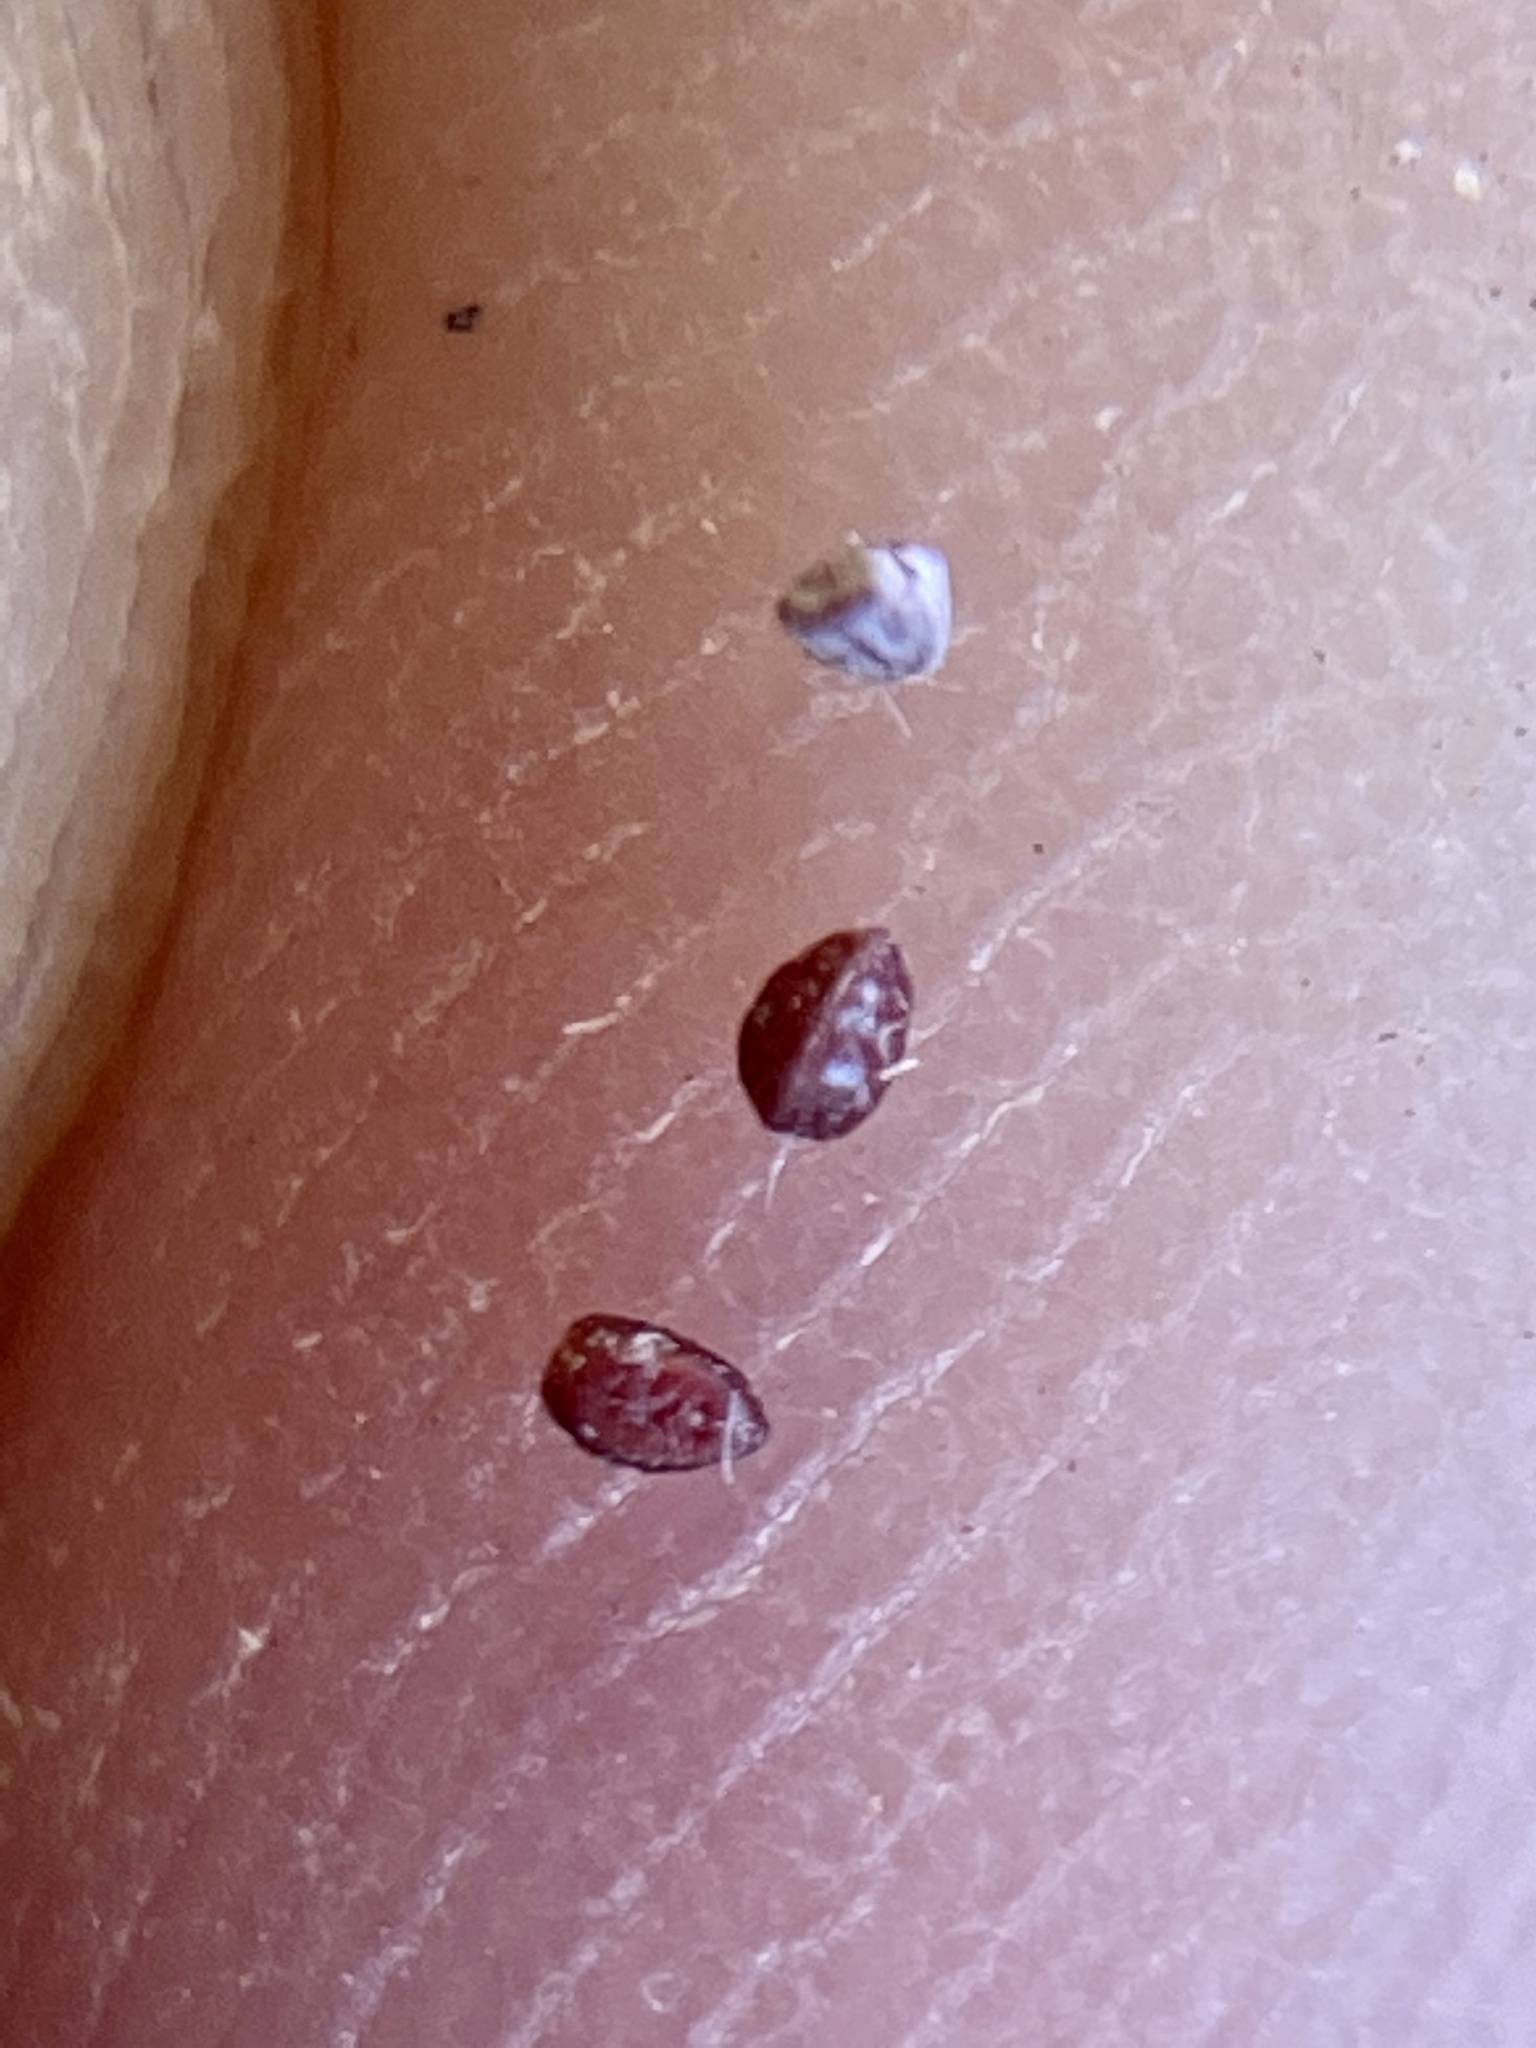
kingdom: Plantae
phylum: Tracheophyta
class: Magnoliopsida
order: Malpighiales
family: Euphorbiaceae
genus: Euphorbia
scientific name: Euphorbia maculata
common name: Spotted spurge
